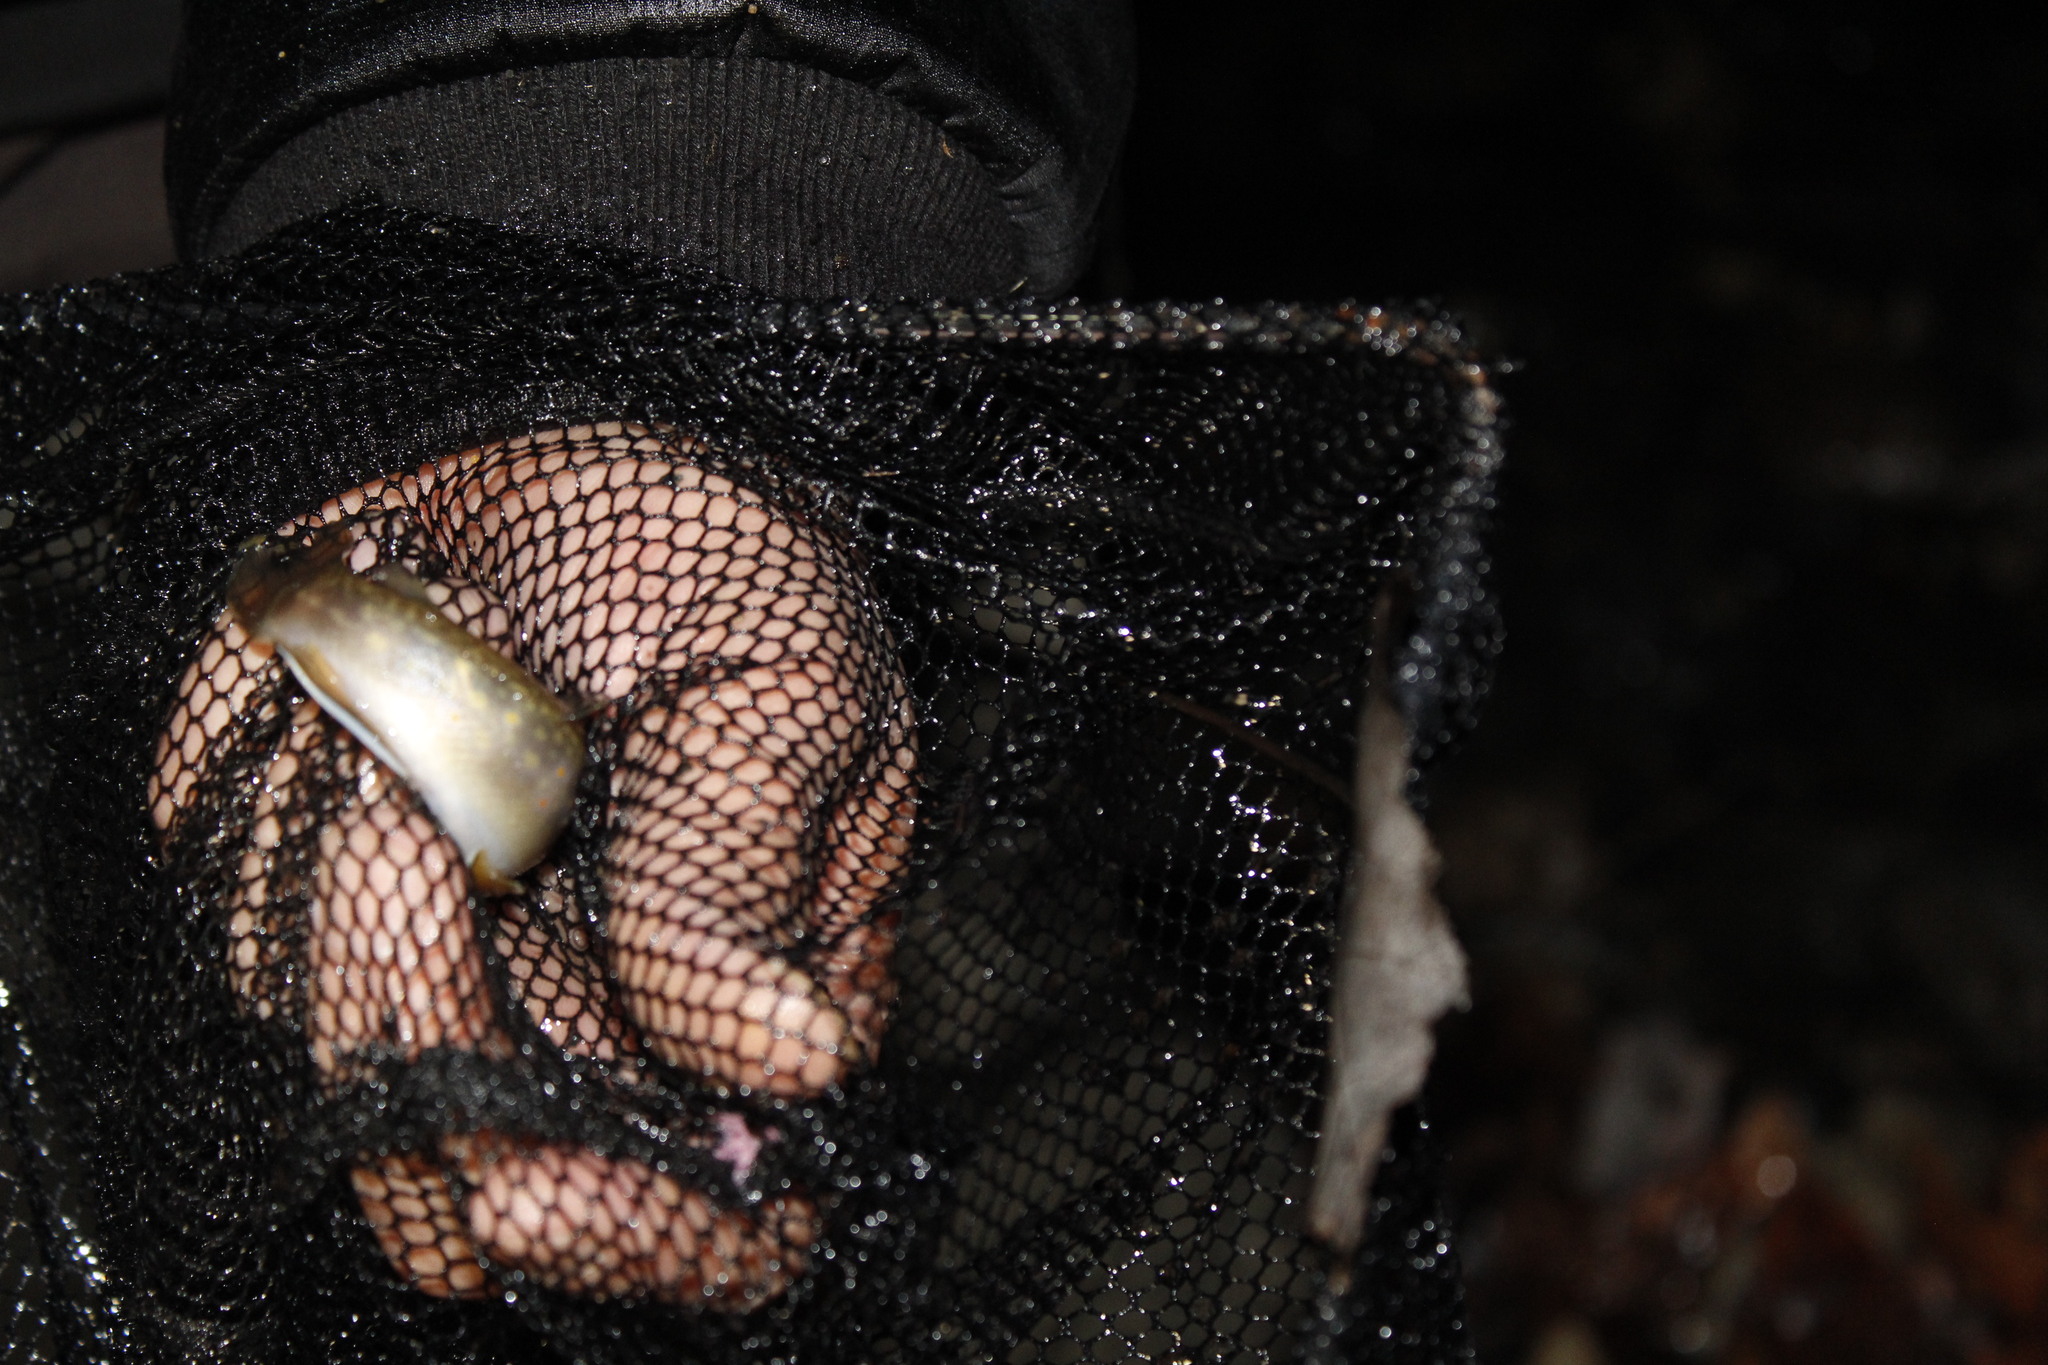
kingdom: Animalia
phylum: Chordata
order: Salmoniformes
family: Salmonidae
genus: Salvelinus
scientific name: Salvelinus fontinalis
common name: Brook trout
